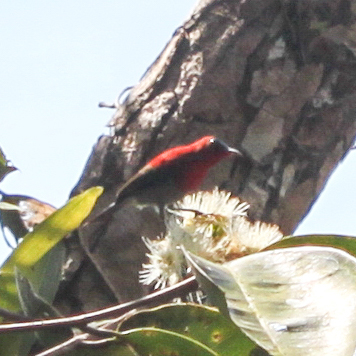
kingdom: Animalia
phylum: Chordata
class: Aves
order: Passeriformes
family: Nectariniidae
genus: Aethopyga
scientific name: Aethopyga siparaja
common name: Crimson sunbird
